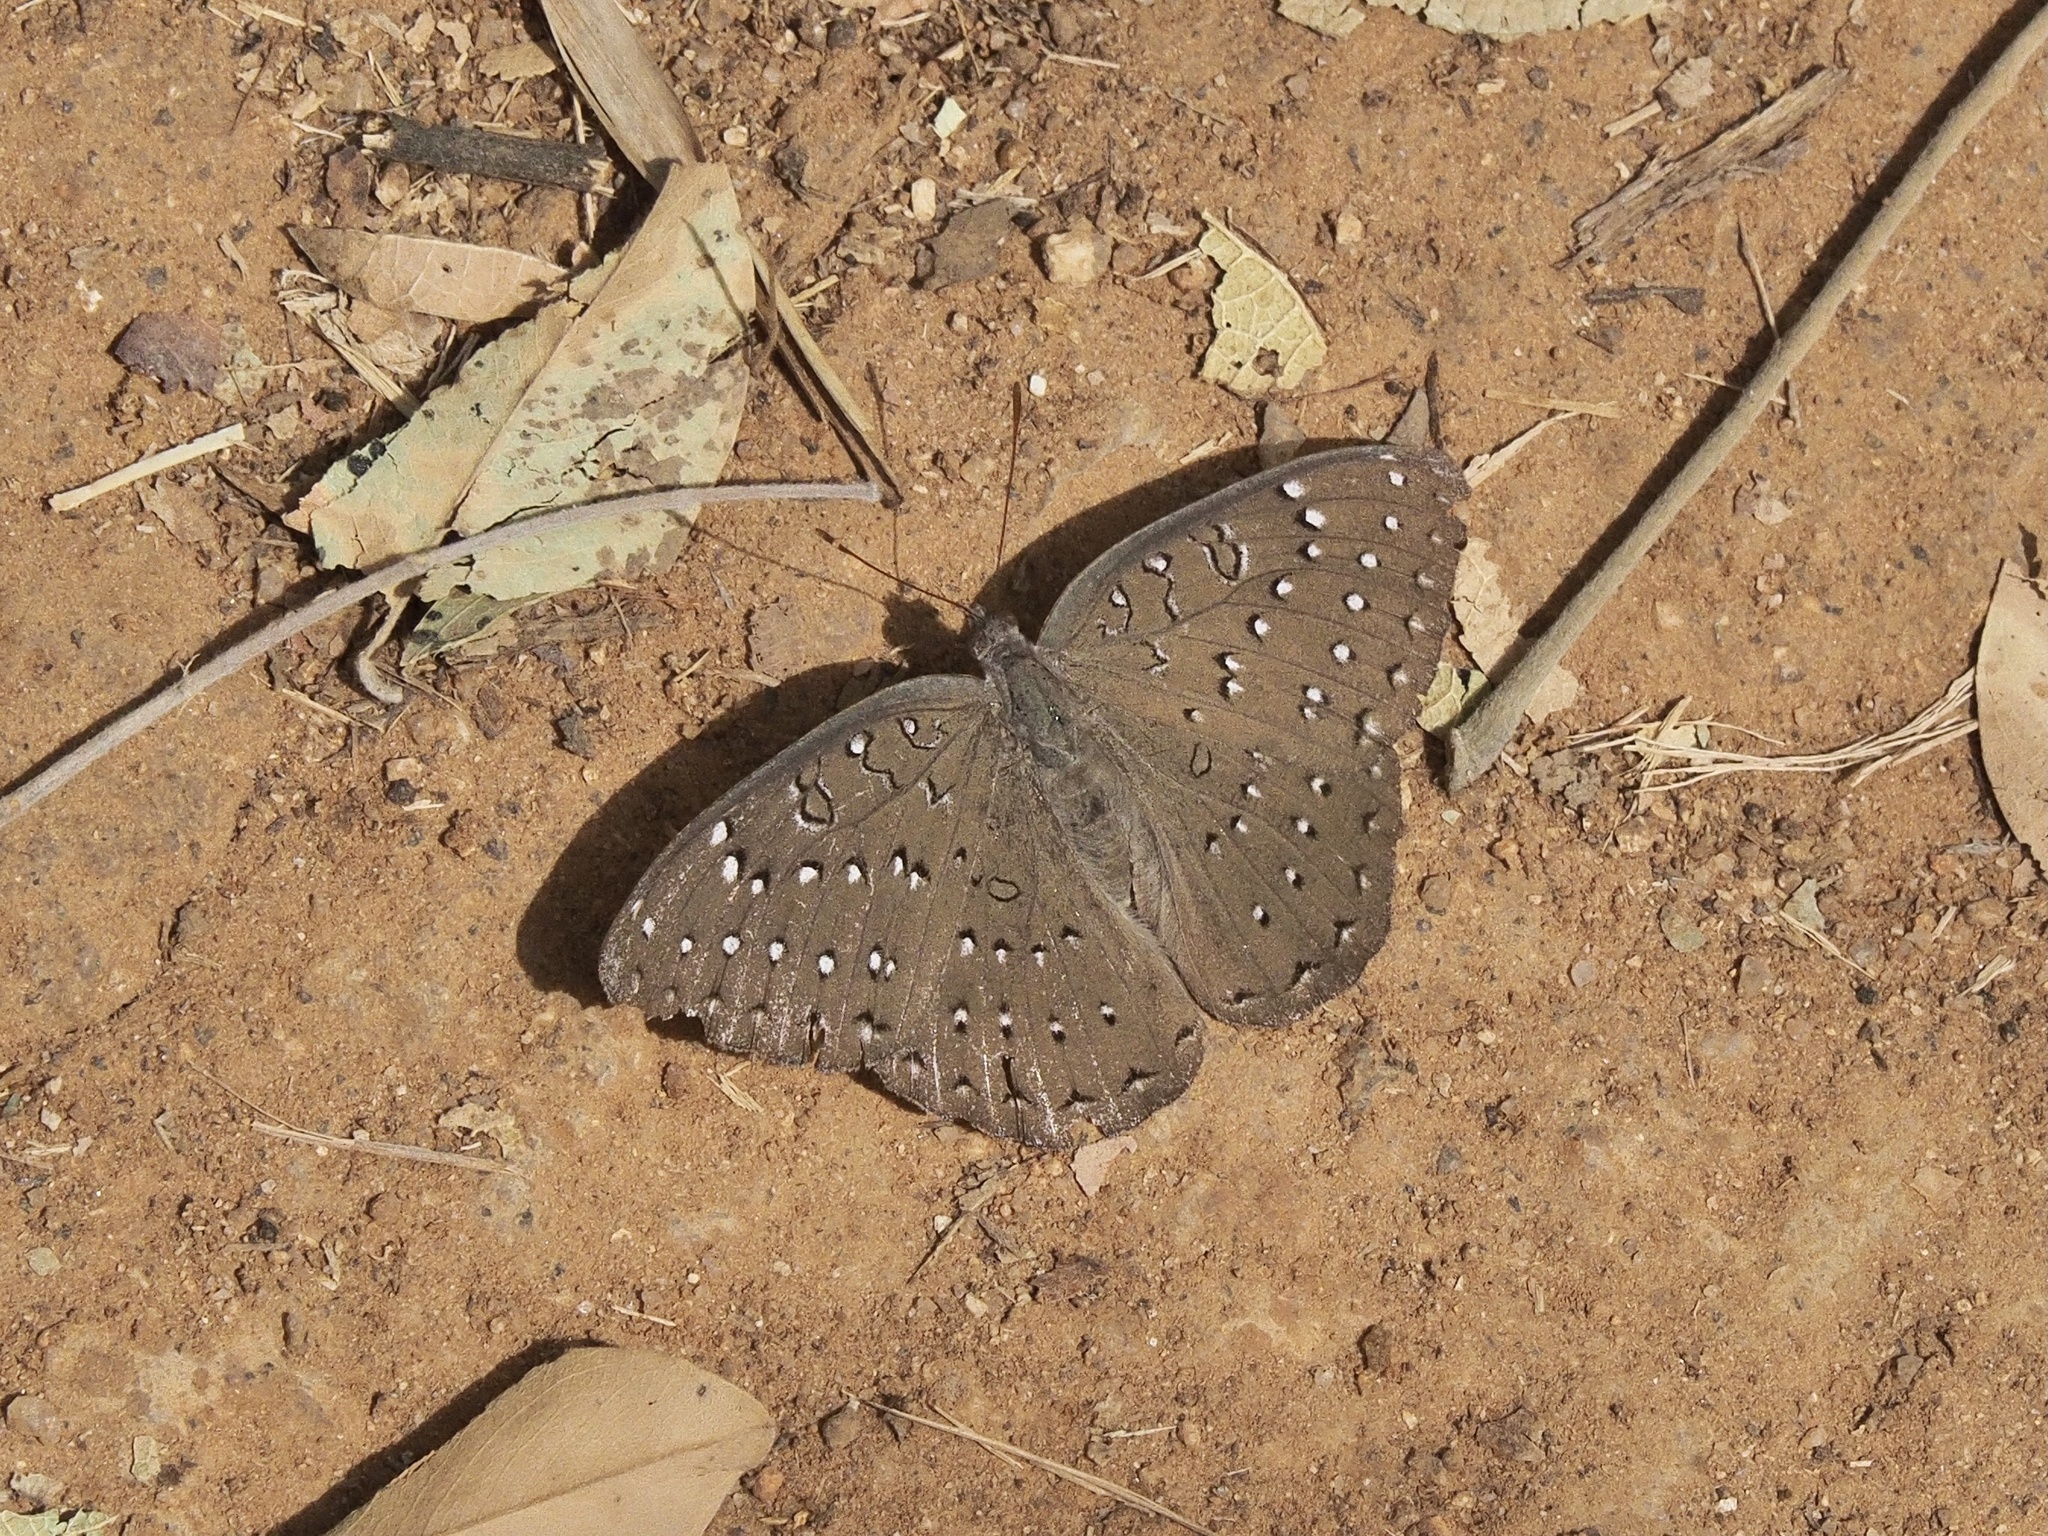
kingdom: Animalia
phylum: Arthropoda
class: Insecta
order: Lepidoptera
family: Nymphalidae
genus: Hamanumida
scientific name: Hamanumida daedalus
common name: Guinea-fowl butterfly
